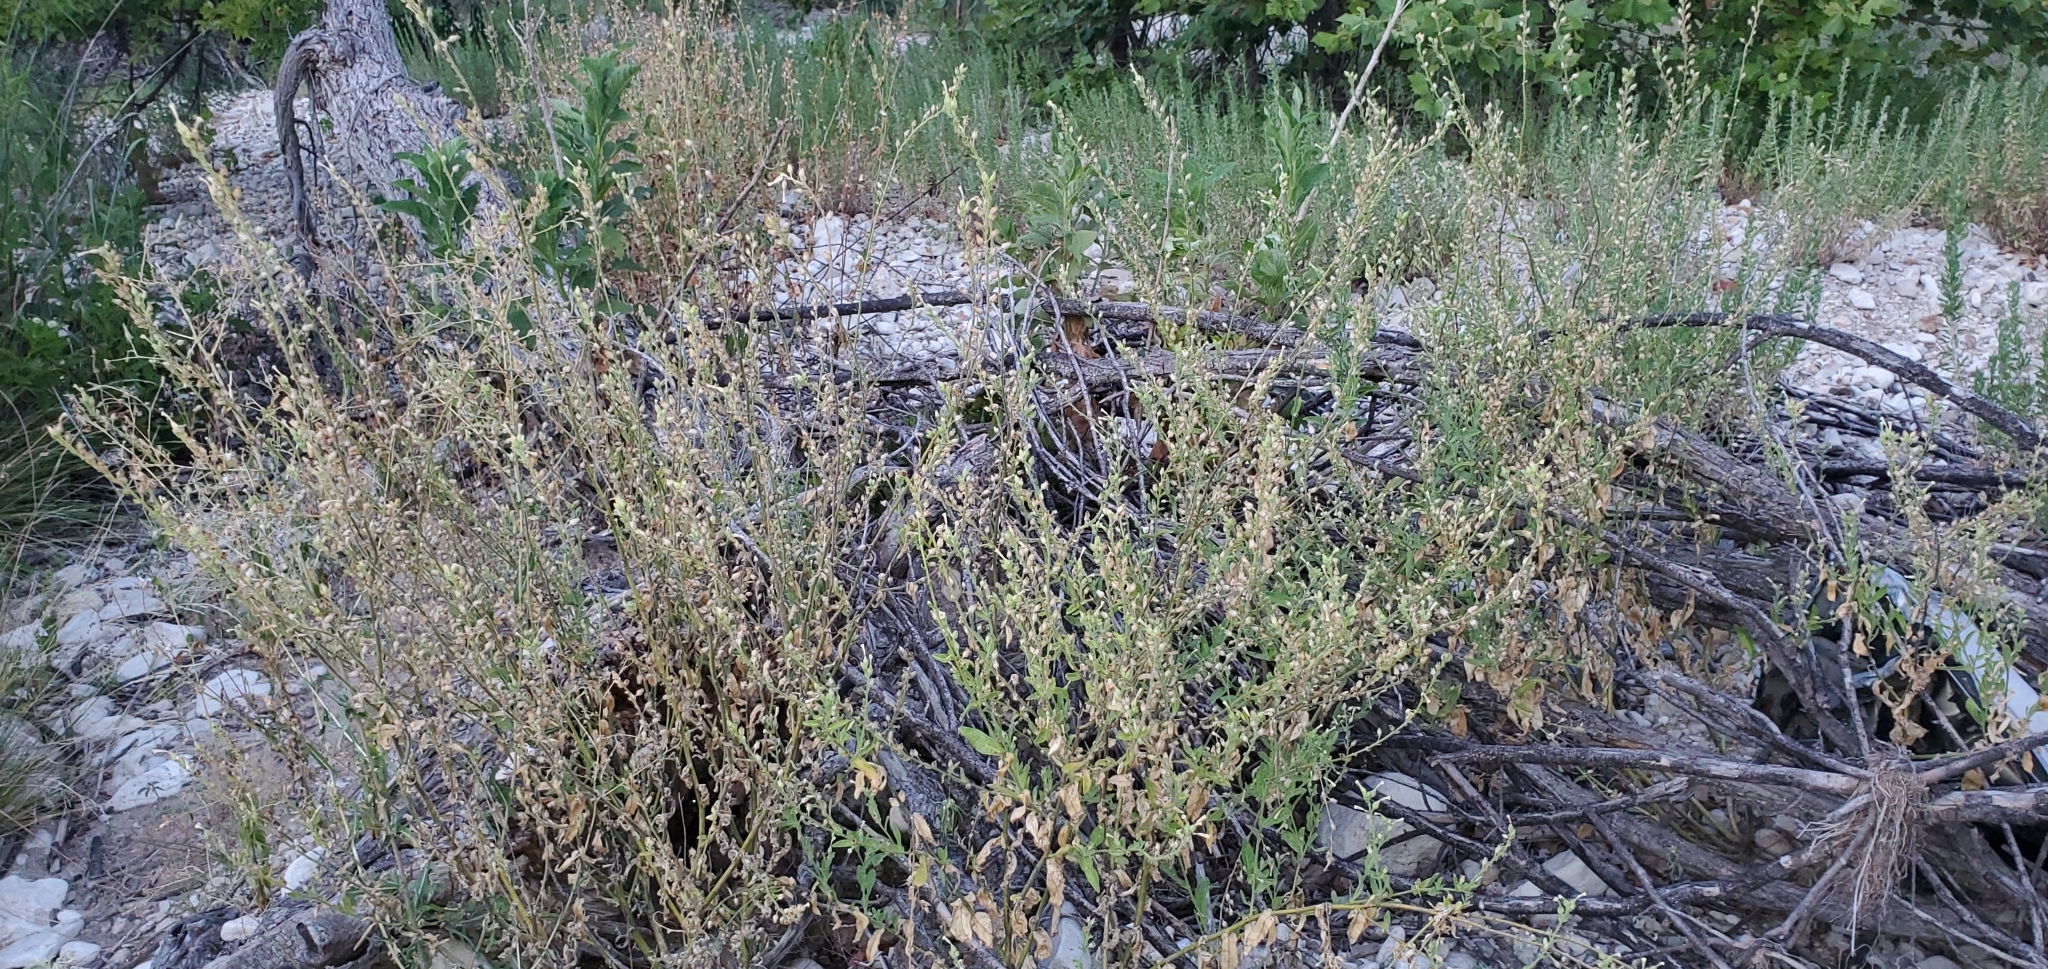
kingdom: Plantae
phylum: Tracheophyta
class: Magnoliopsida
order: Solanales
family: Solanaceae
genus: Nicotiana
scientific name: Nicotiana obtusifolia
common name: Desert tobacco
